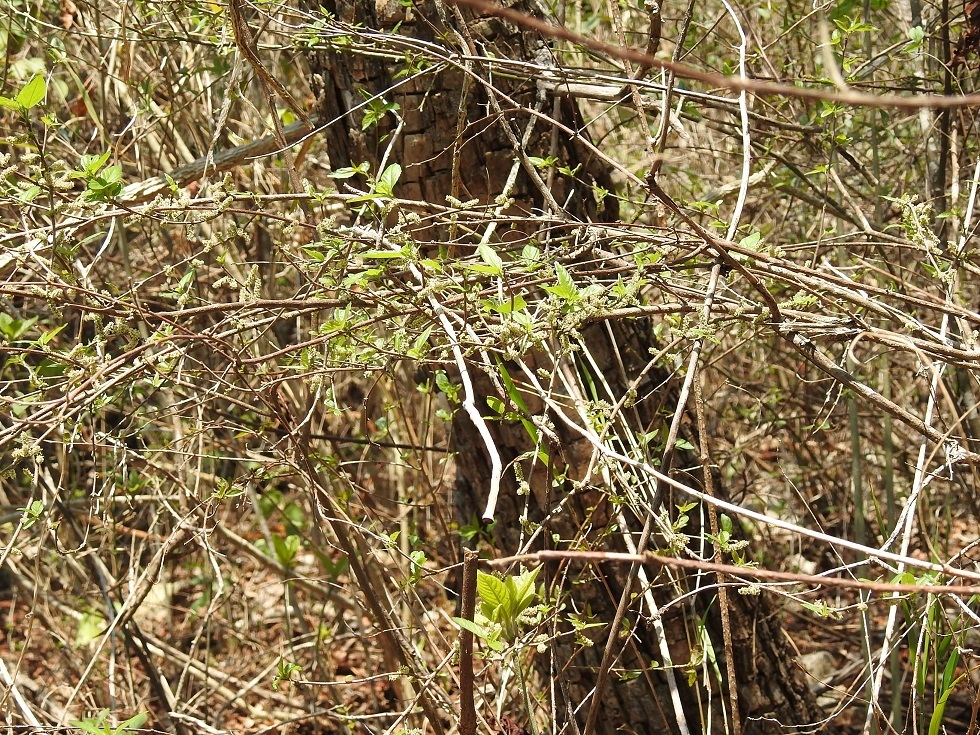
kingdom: Plantae
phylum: Tracheophyta
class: Magnoliopsida
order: Malpighiales
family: Euphorbiaceae
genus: Acalypha
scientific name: Acalypha chiapensis
